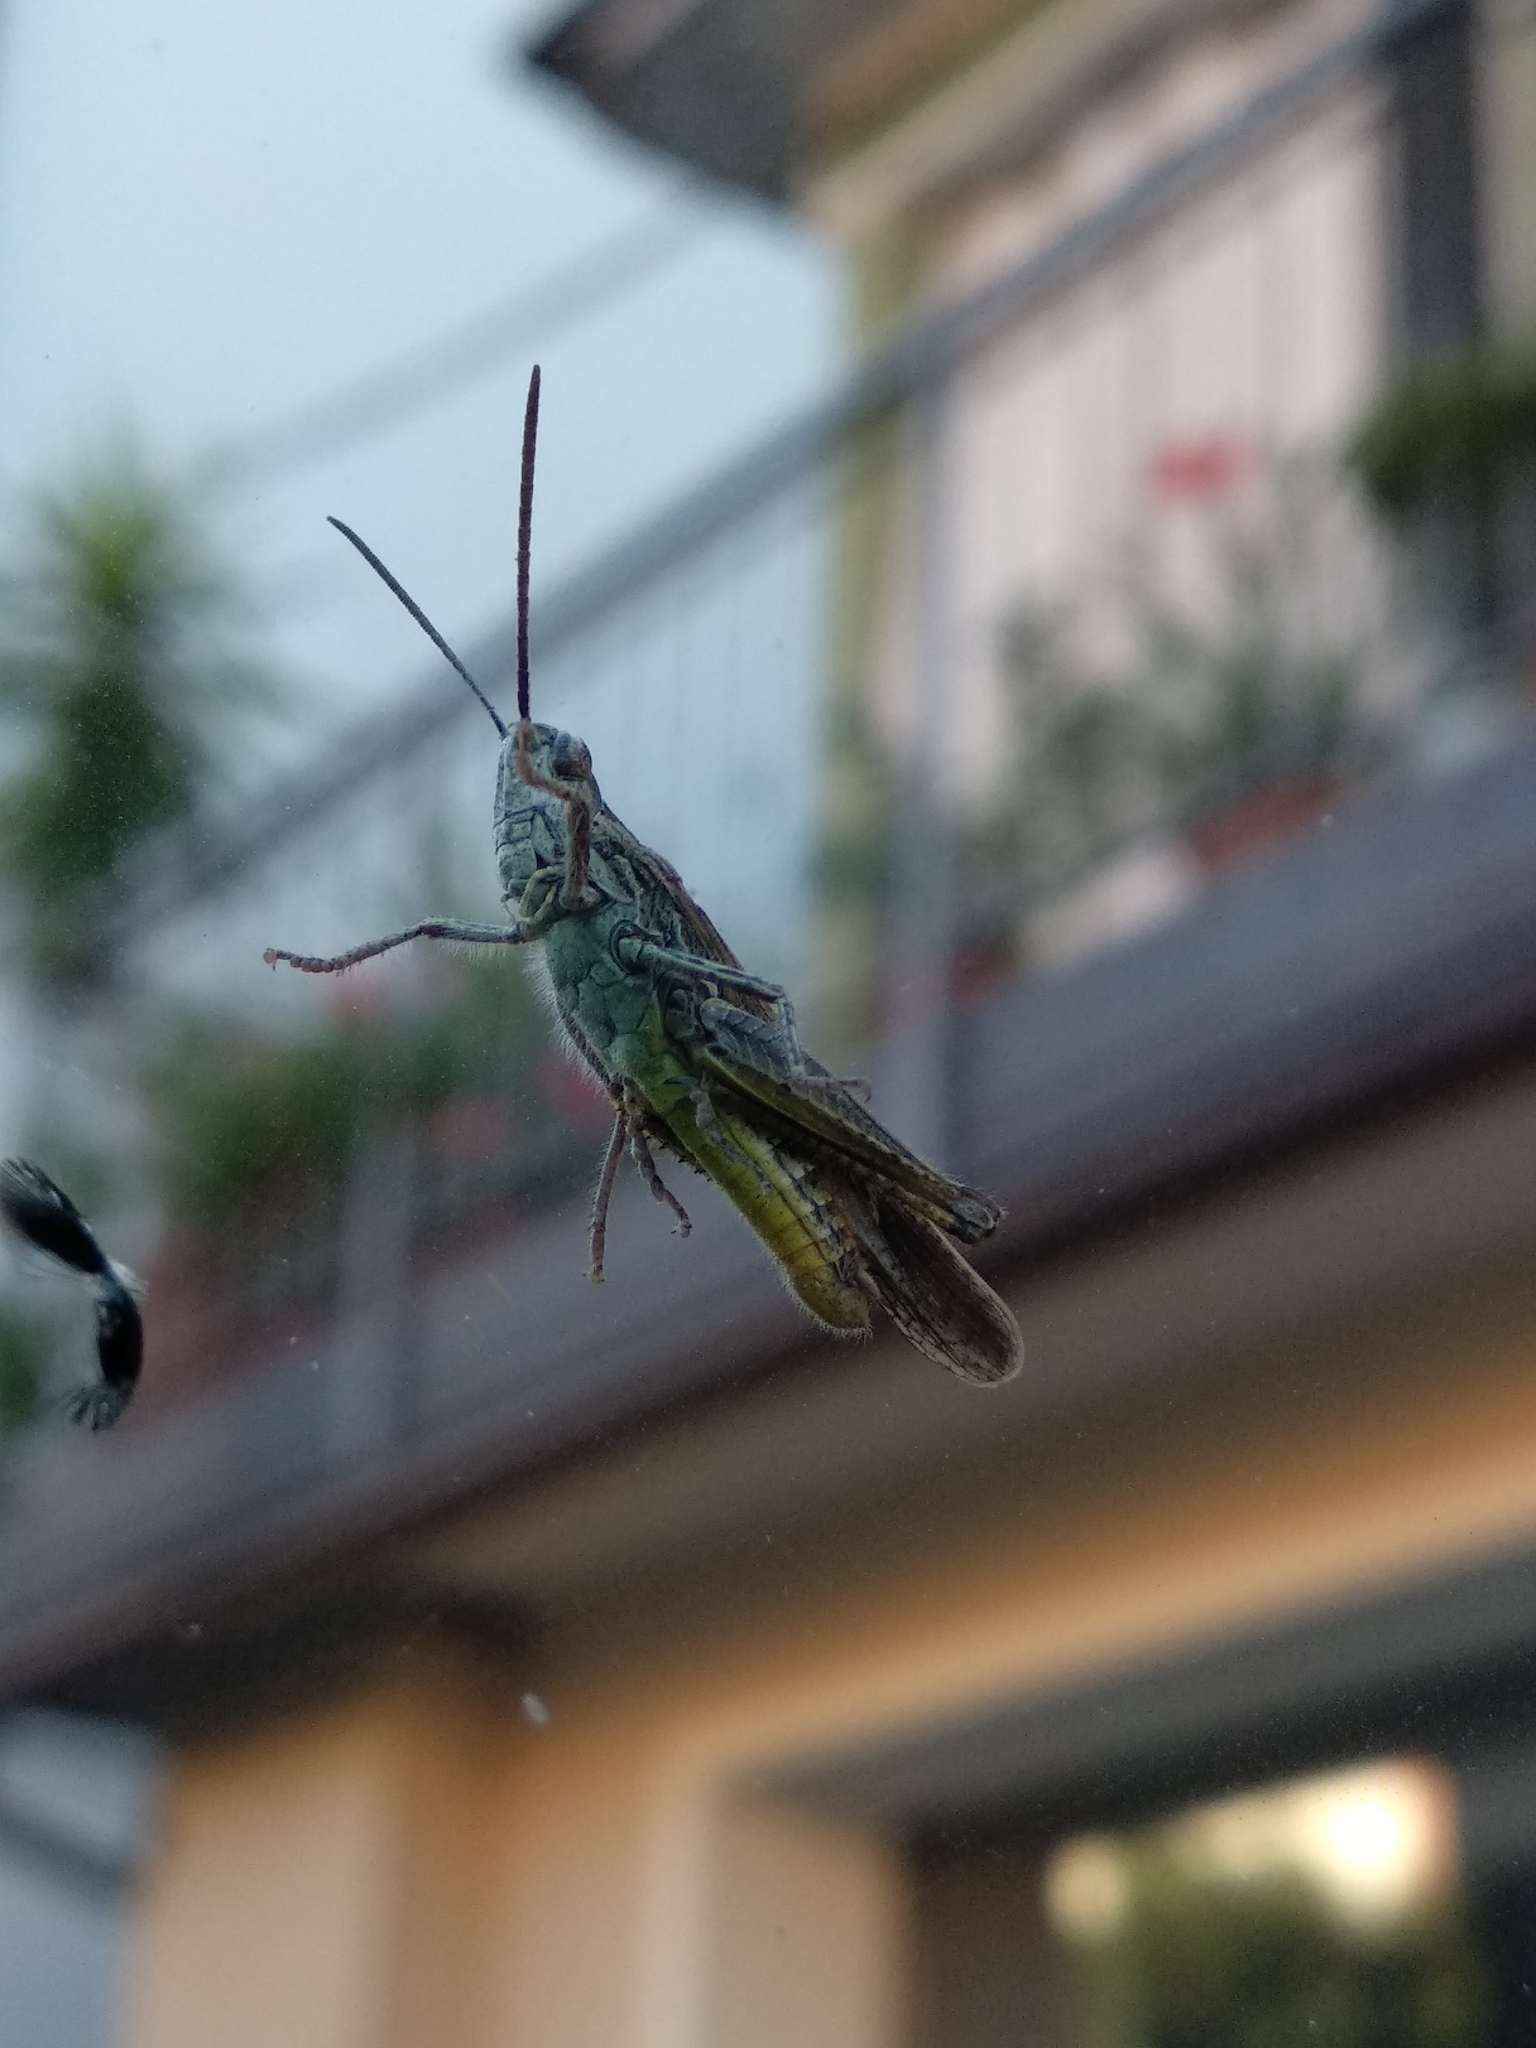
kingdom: Animalia
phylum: Arthropoda
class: Insecta
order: Orthoptera
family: Acrididae
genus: Chorthippus
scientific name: Chorthippus brunneus
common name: Field grasshopper
